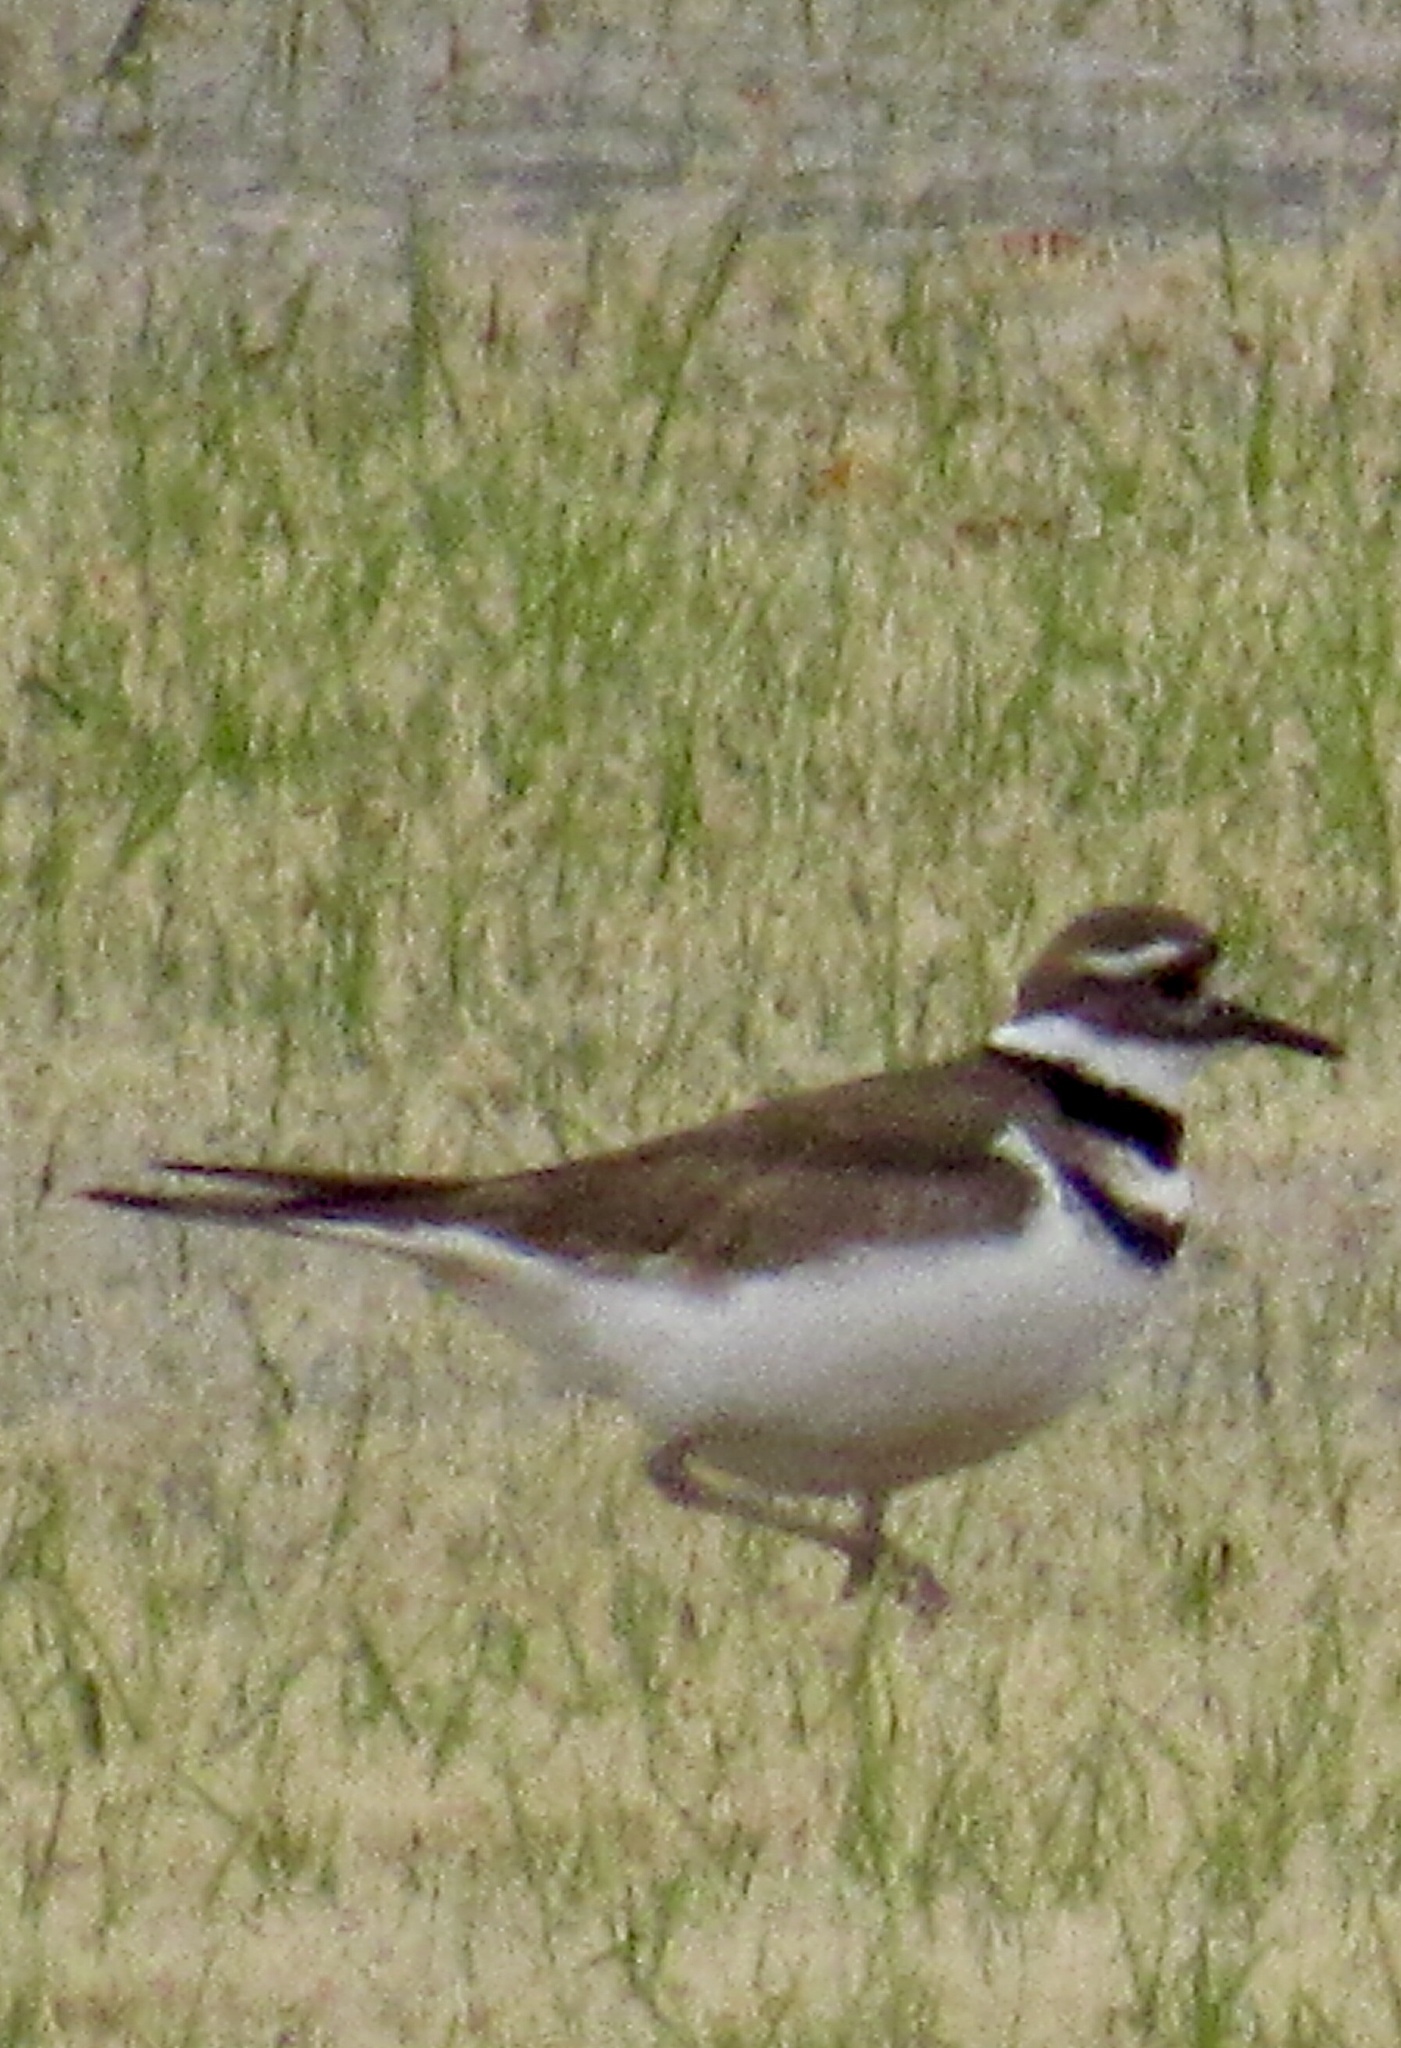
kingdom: Animalia
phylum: Chordata
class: Aves
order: Charadriiformes
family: Charadriidae
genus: Charadrius
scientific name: Charadrius vociferus
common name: Killdeer
